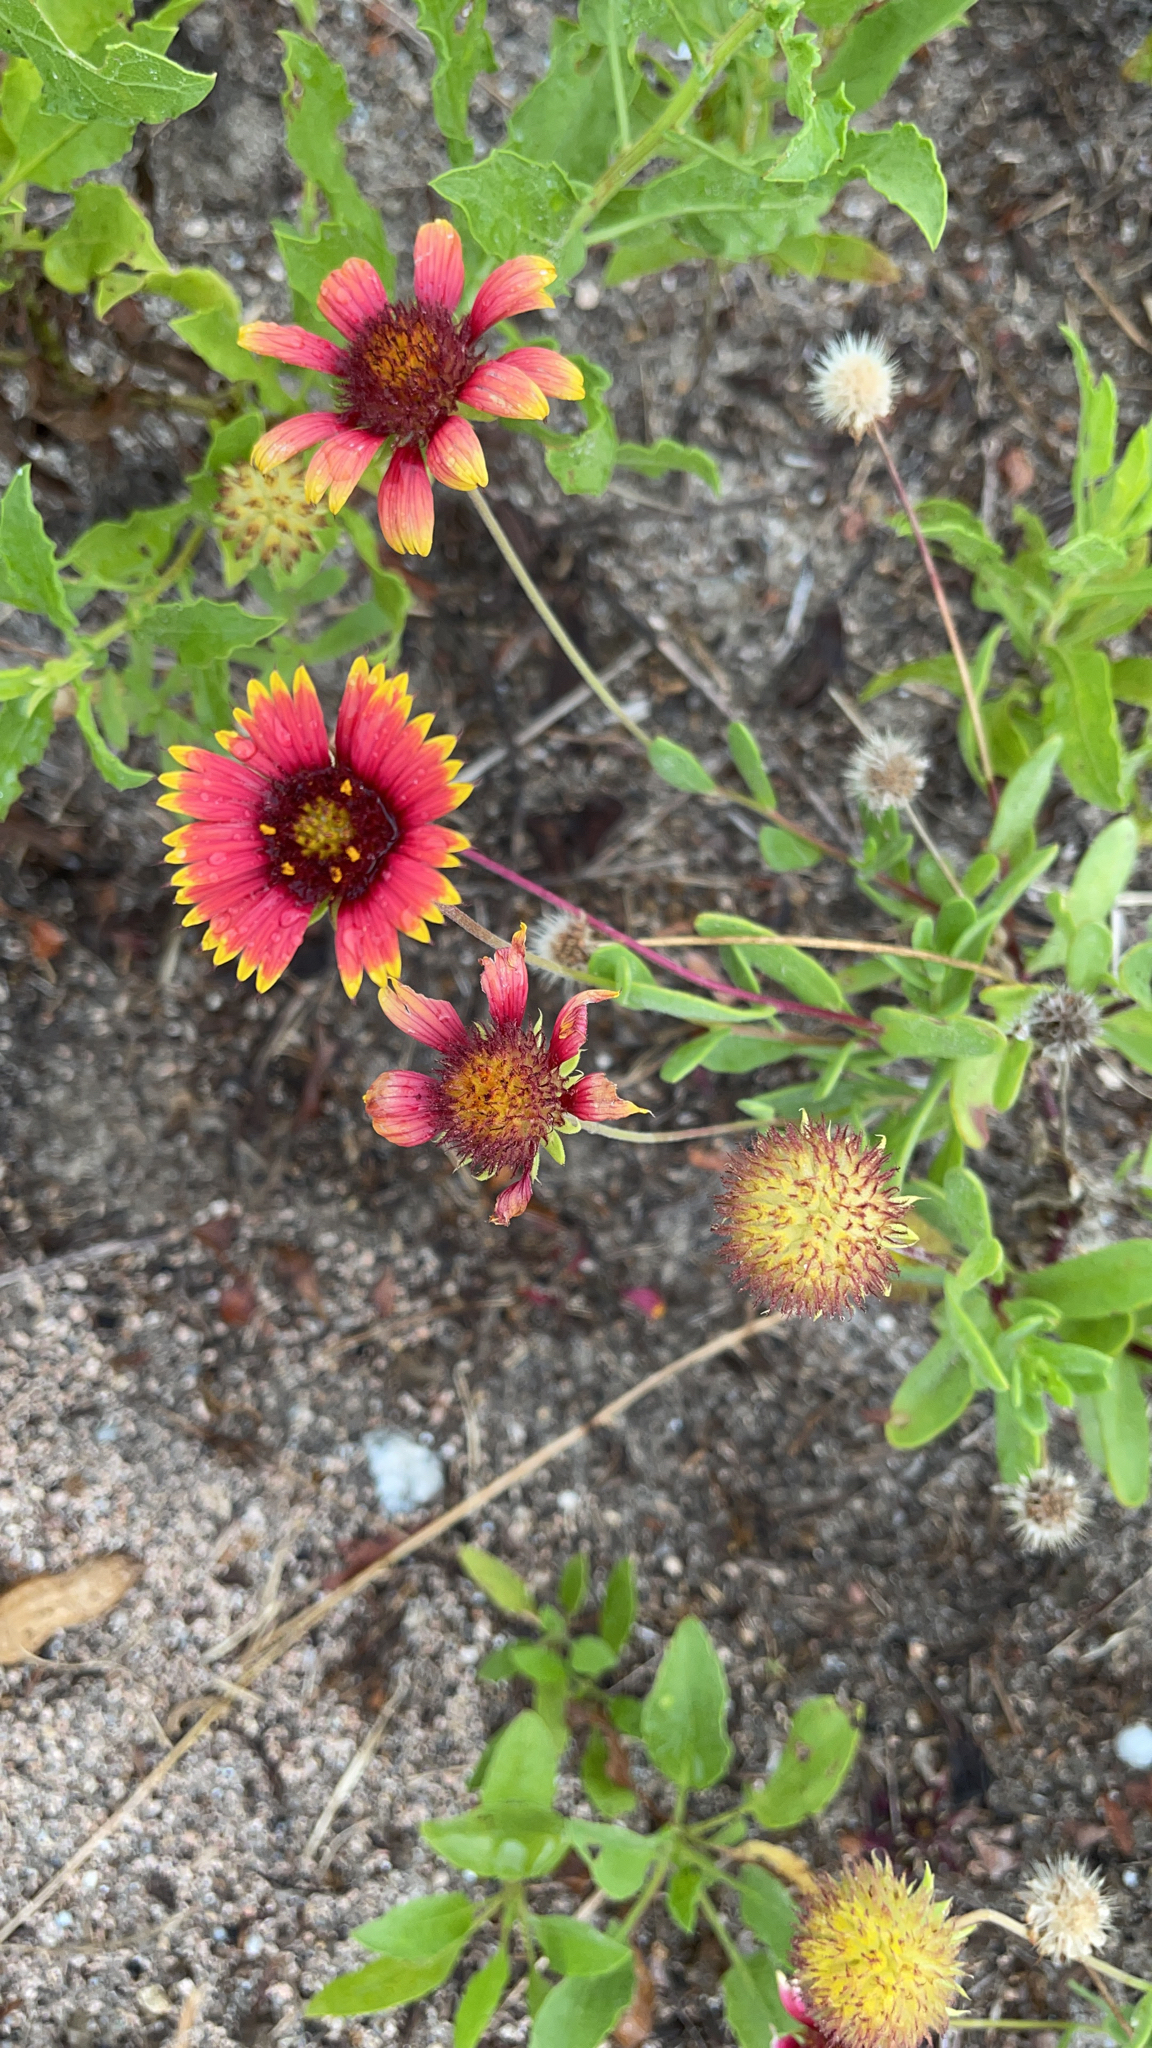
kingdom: Plantae
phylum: Tracheophyta
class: Magnoliopsida
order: Asterales
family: Asteraceae
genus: Gaillardia
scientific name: Gaillardia pulchella
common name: Firewheel
